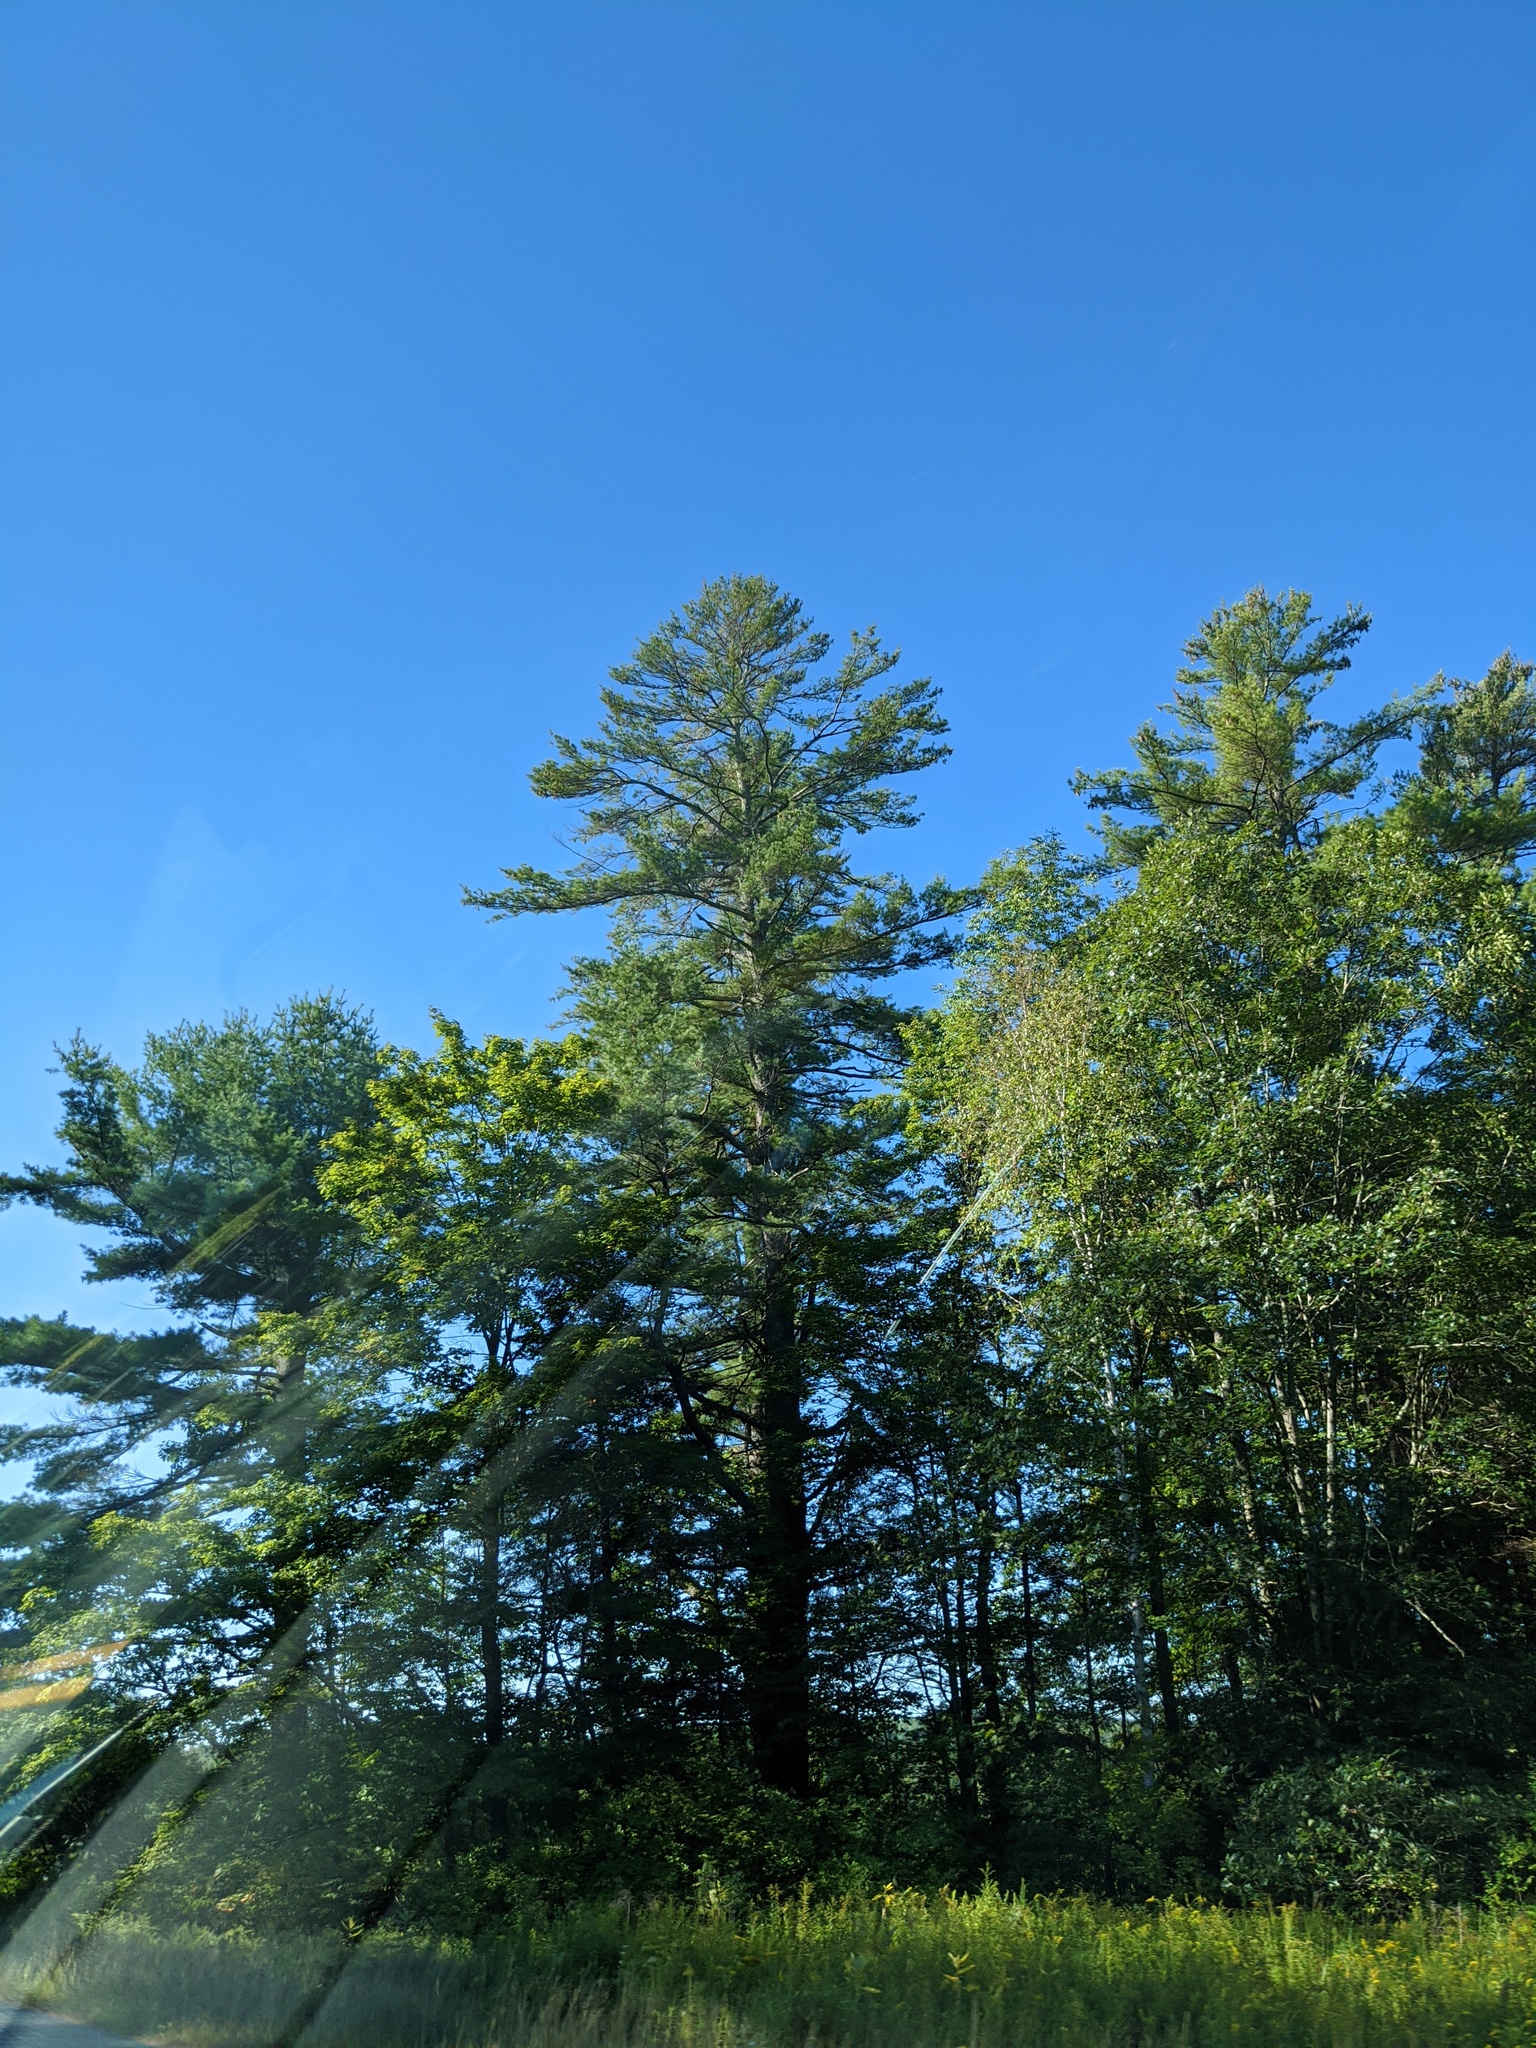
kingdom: Plantae
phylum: Tracheophyta
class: Pinopsida
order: Pinales
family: Pinaceae
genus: Pinus
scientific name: Pinus strobus
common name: Weymouth pine
